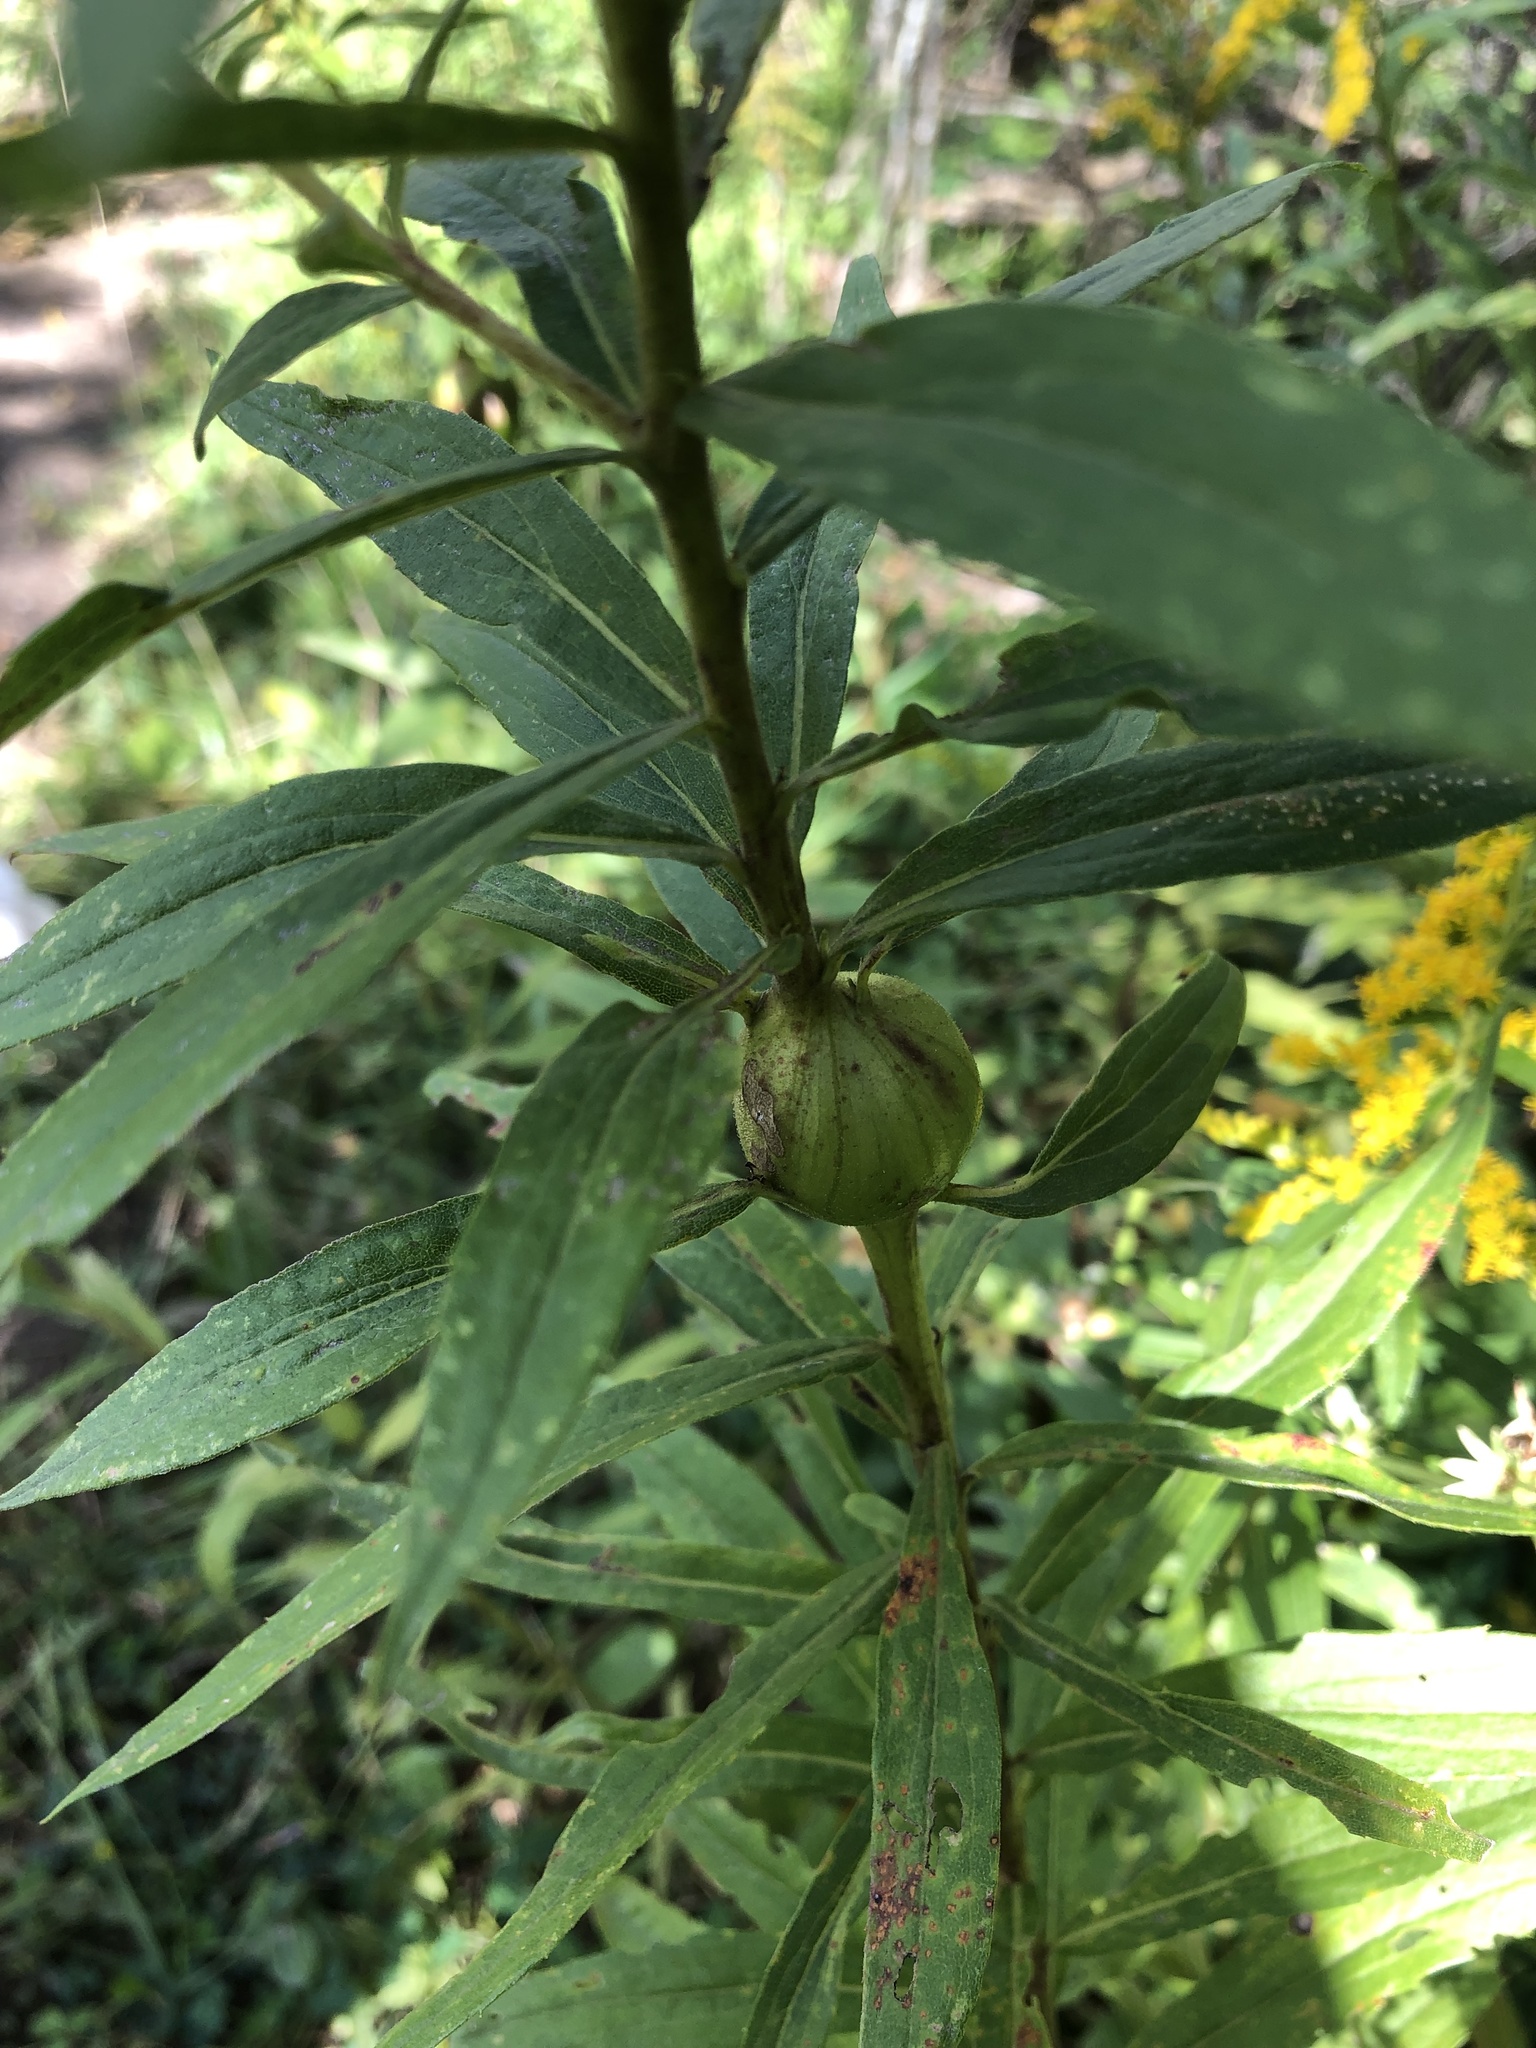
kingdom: Animalia
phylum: Arthropoda
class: Insecta
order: Diptera
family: Tephritidae
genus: Eurosta
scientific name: Eurosta solidaginis
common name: Goldenrod gall fly
